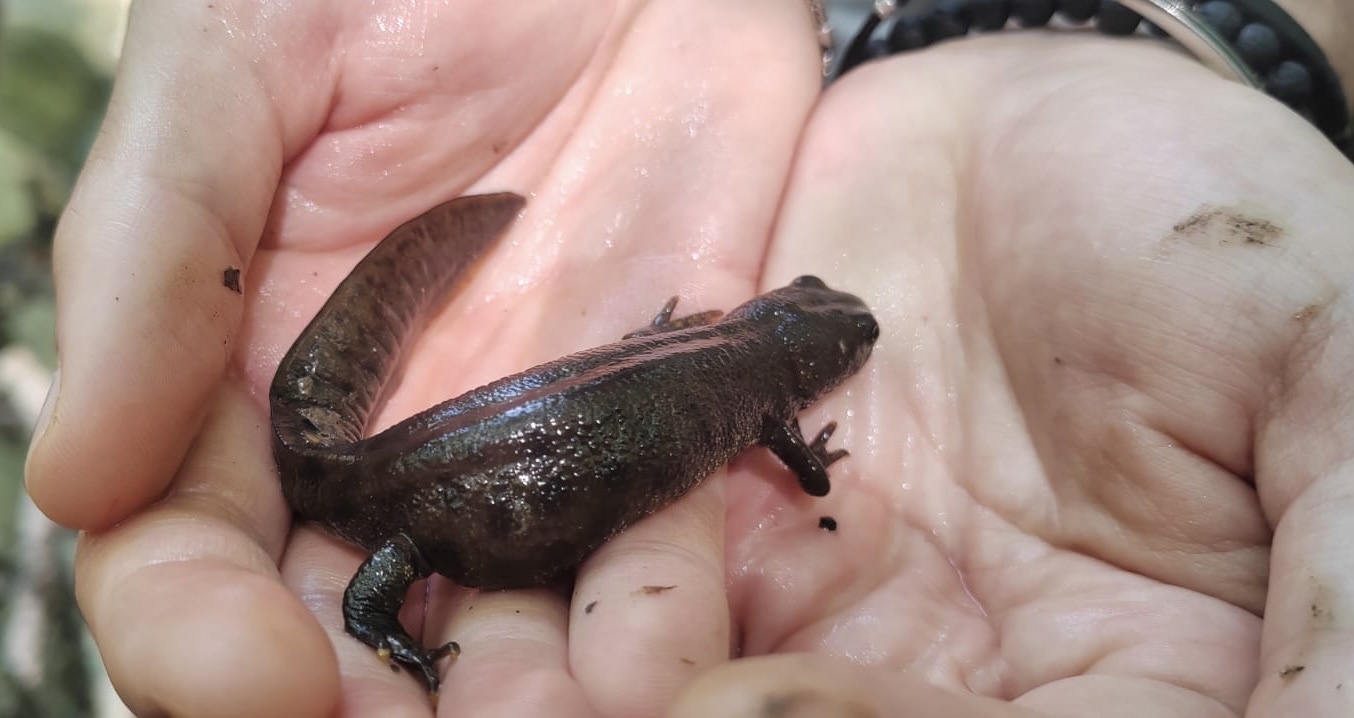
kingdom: Animalia
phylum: Chordata
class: Amphibia
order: Caudata
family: Salamandridae
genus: Triturus
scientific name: Triturus carnifex
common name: Italian crested newt
